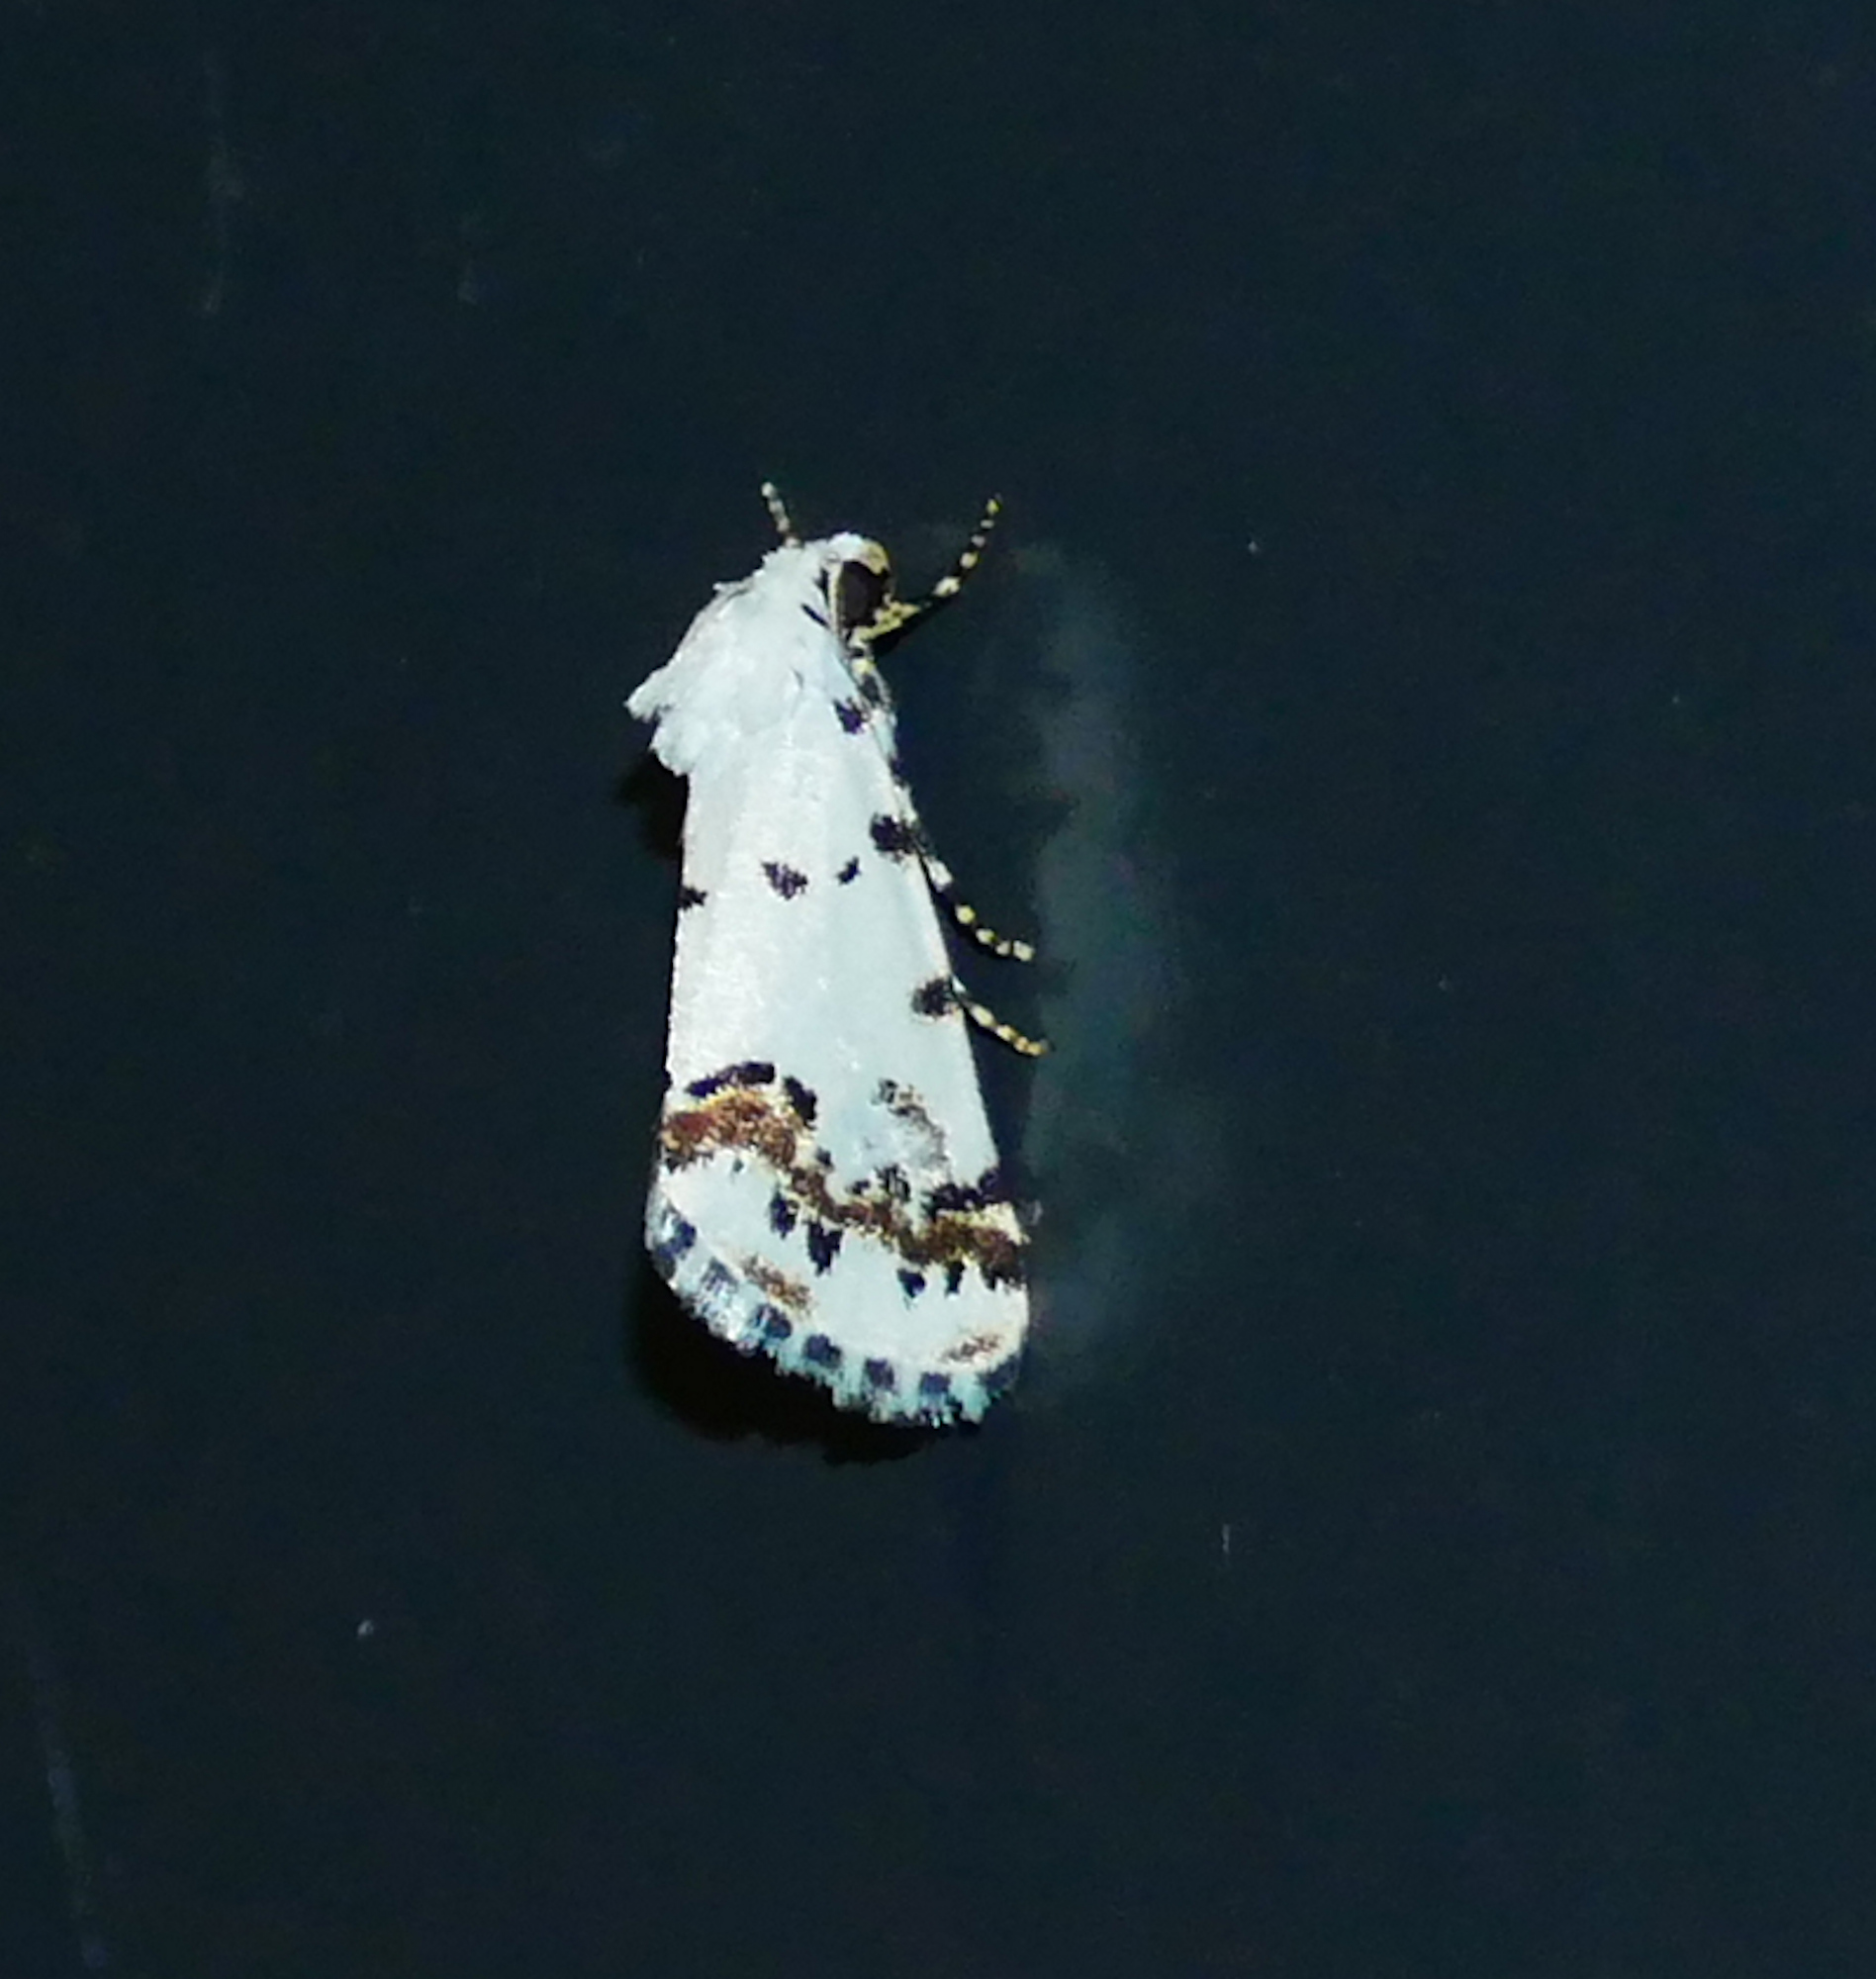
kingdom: Animalia
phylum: Arthropoda
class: Insecta
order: Lepidoptera
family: Noctuidae
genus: Grotella
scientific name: Grotella tricolor
